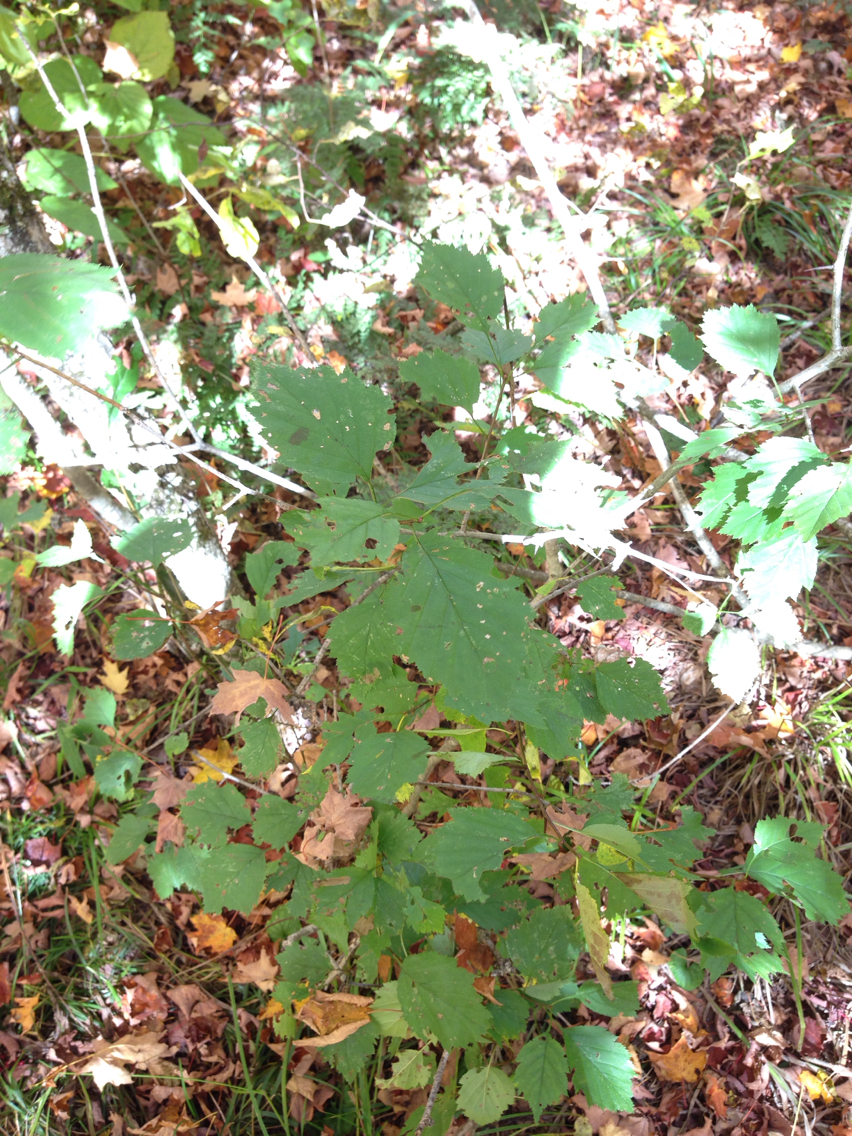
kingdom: Plantae
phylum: Tracheophyta
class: Magnoliopsida
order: Rosales
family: Rosaceae
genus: Crataegus
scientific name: Crataegus
